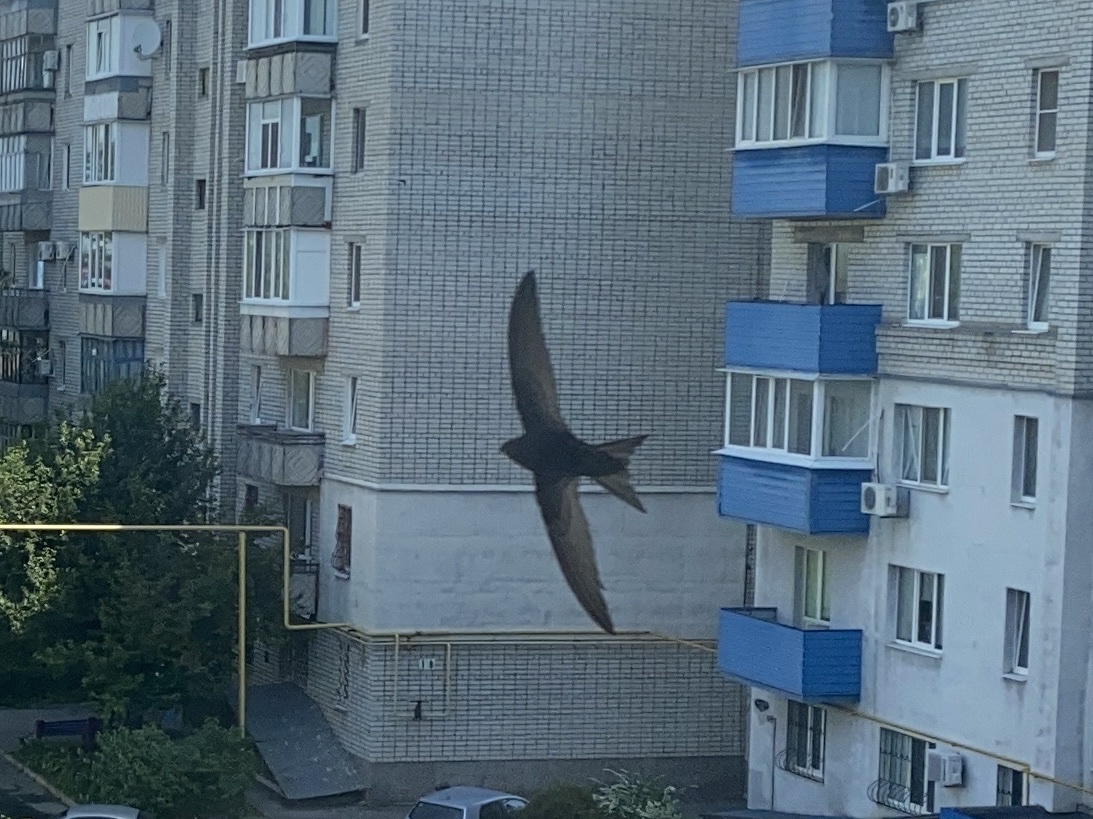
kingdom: Animalia
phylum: Chordata
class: Aves
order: Apodiformes
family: Apodidae
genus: Apus
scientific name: Apus apus
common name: Common swift
